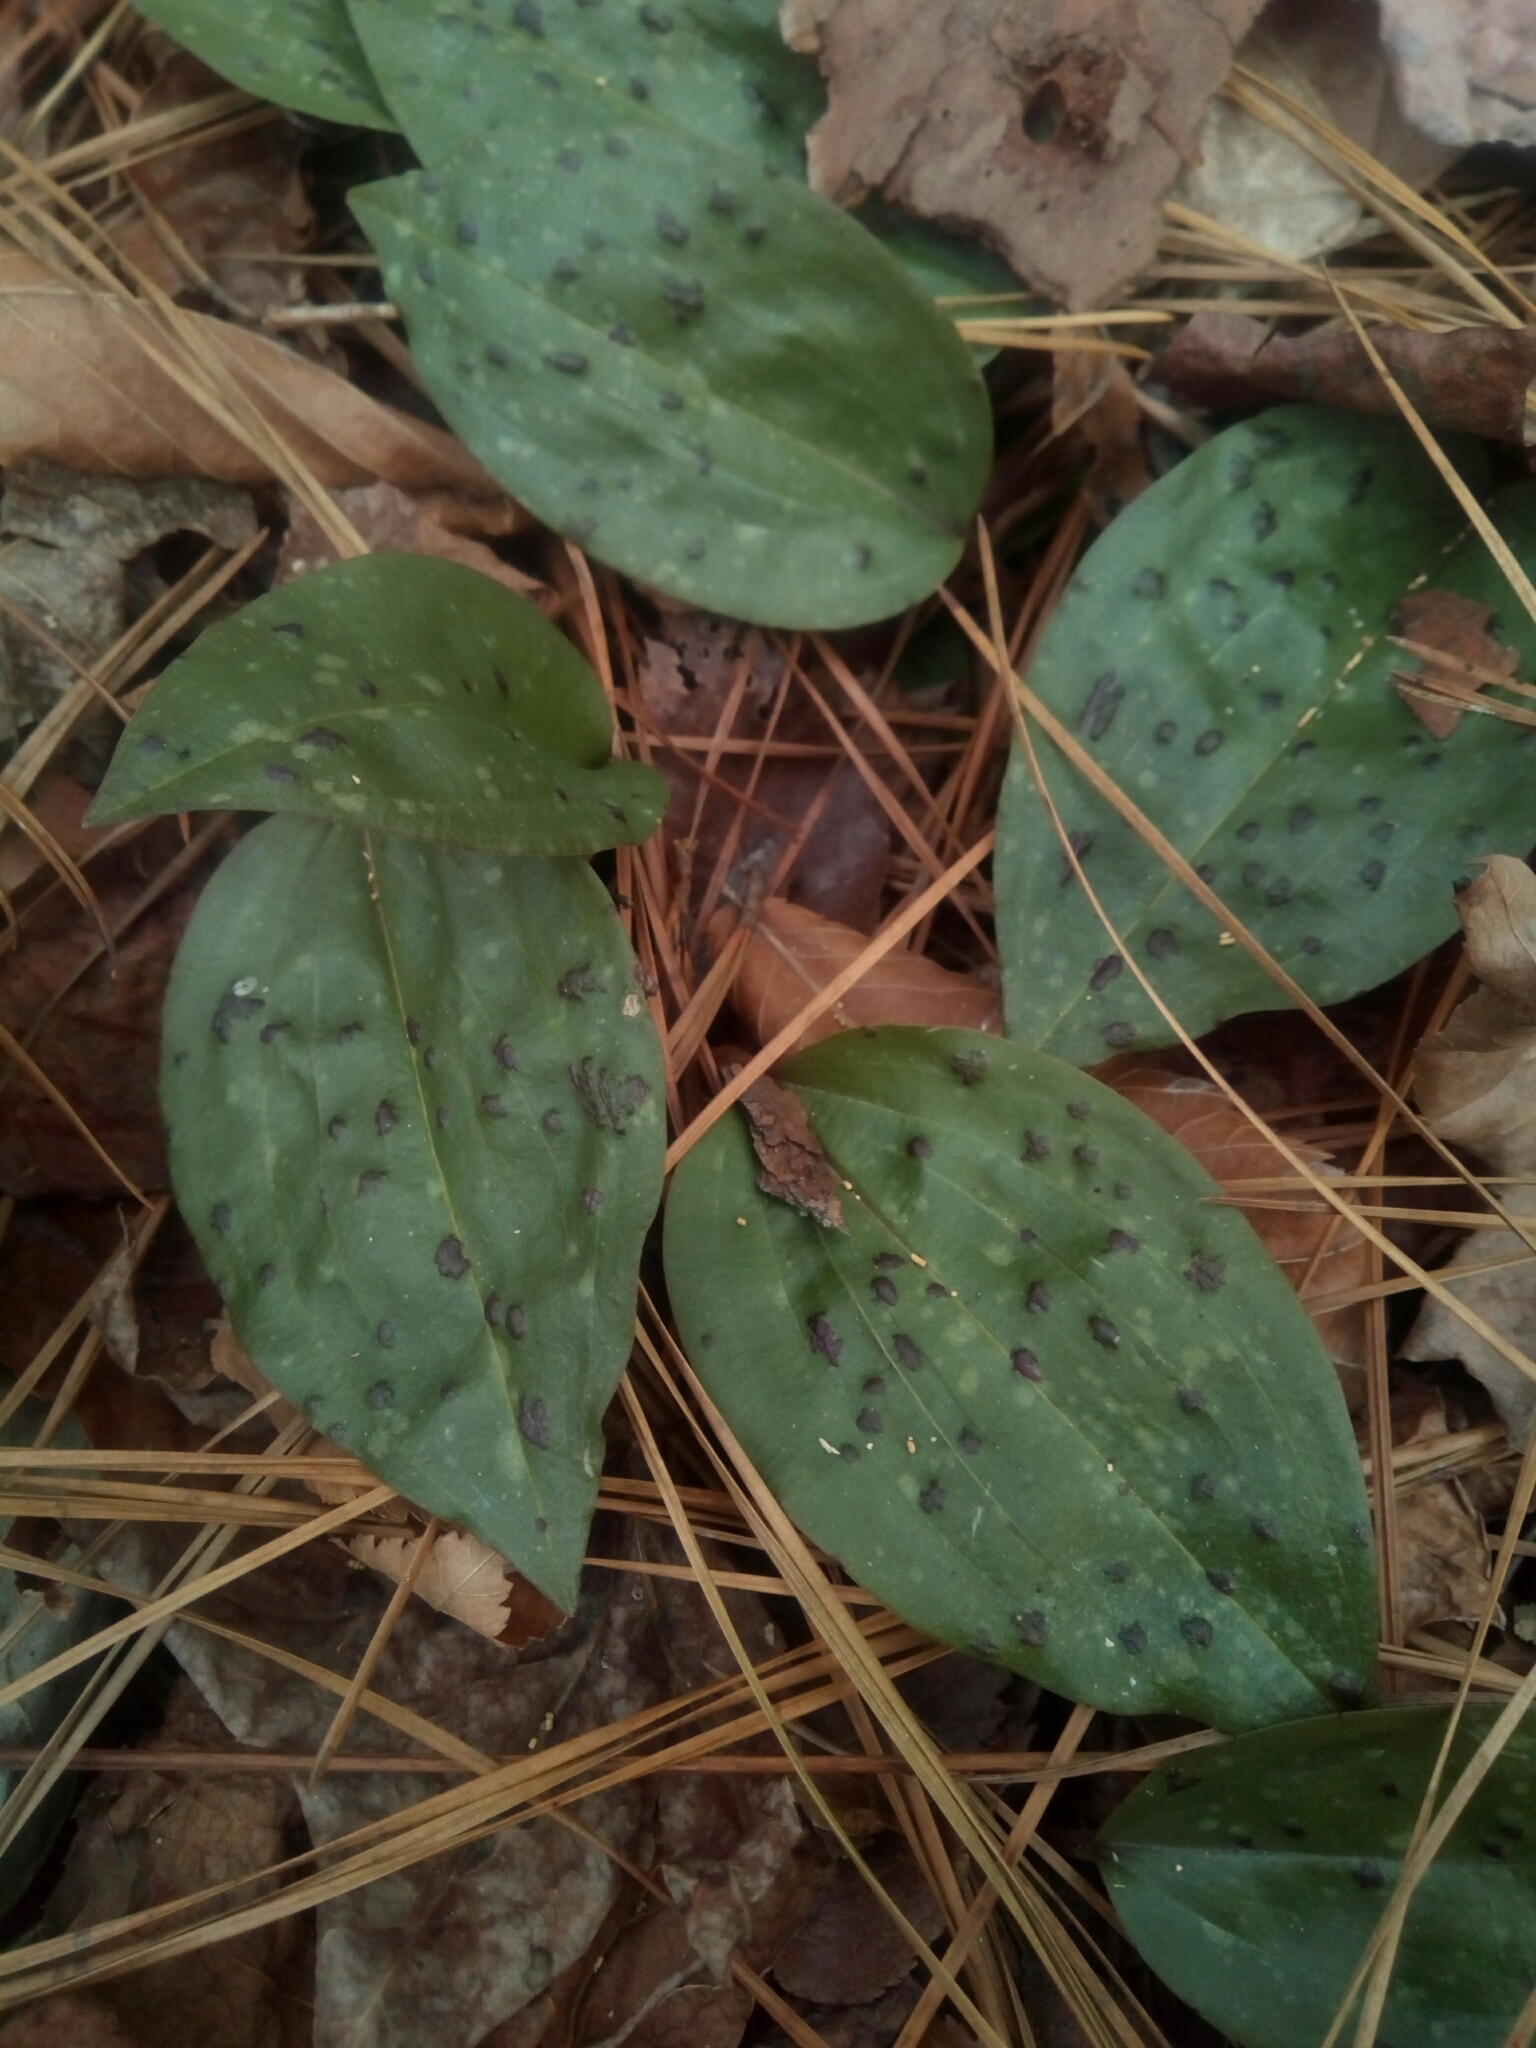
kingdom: Plantae
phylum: Tracheophyta
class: Liliopsida
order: Asparagales
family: Orchidaceae
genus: Tipularia
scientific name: Tipularia discolor
